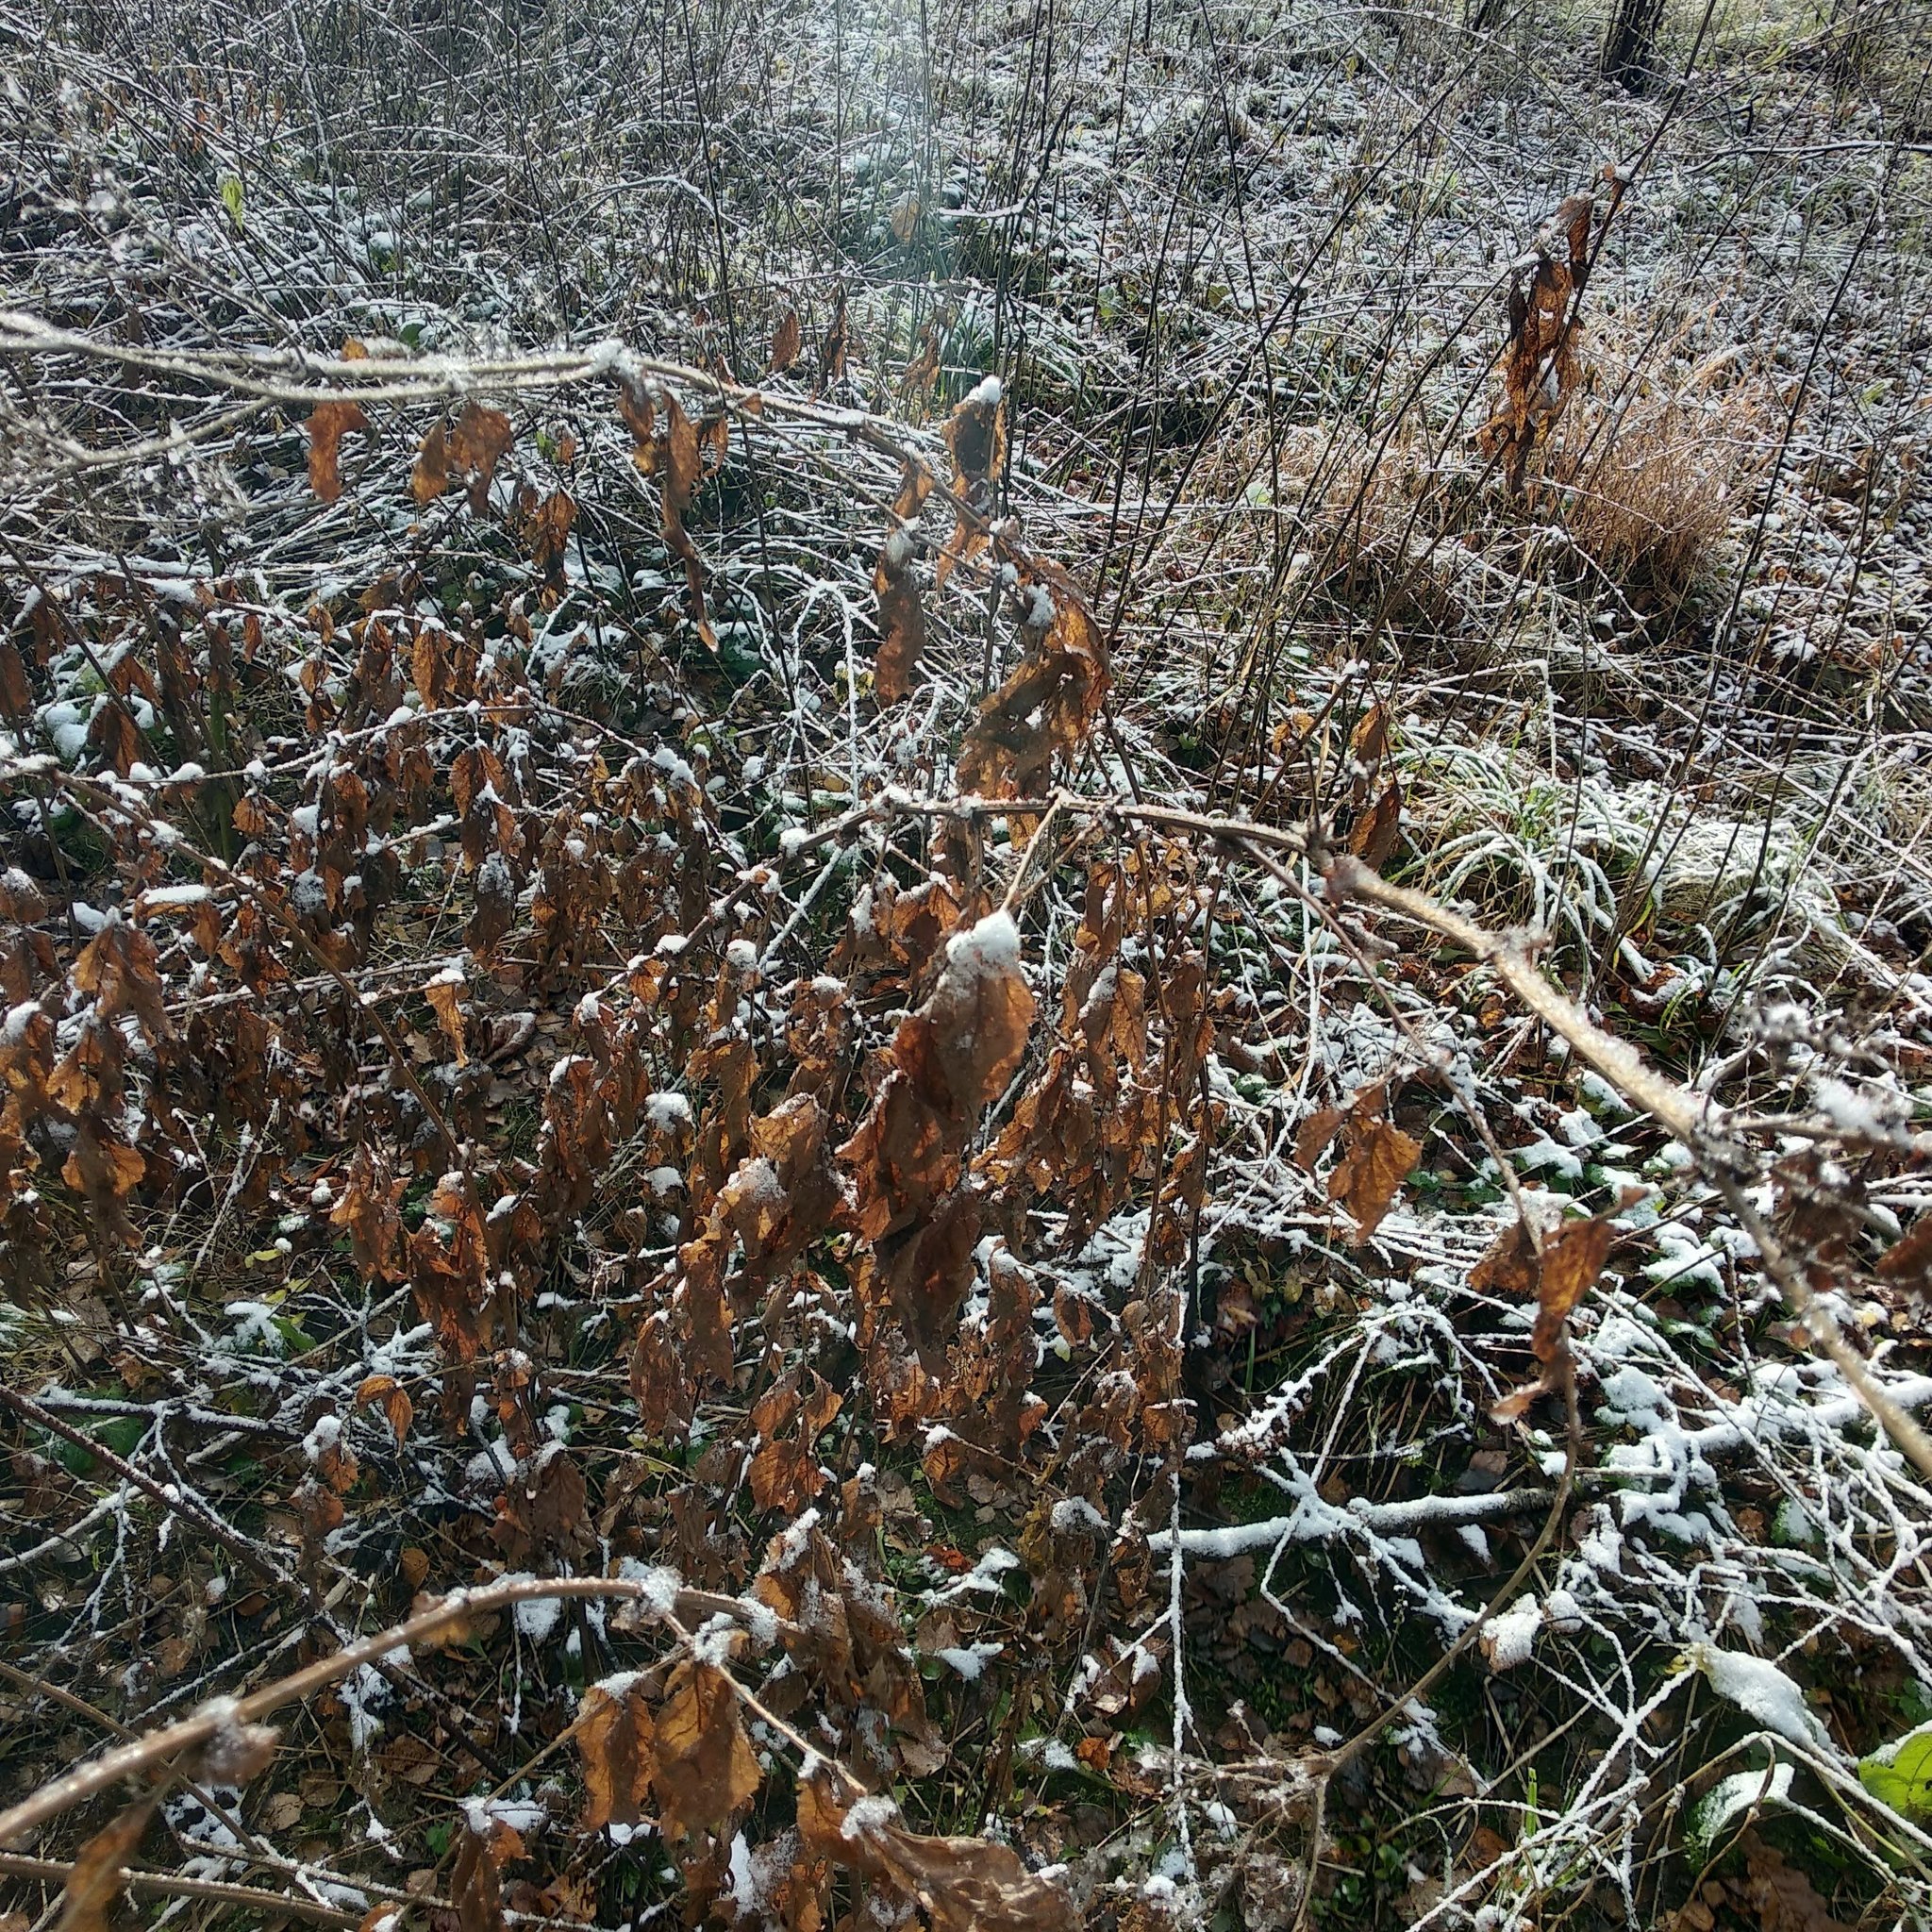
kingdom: Plantae
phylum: Tracheophyta
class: Magnoliopsida
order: Rosales
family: Rosaceae
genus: Filipendula
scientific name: Filipendula ulmaria
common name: Meadowsweet
